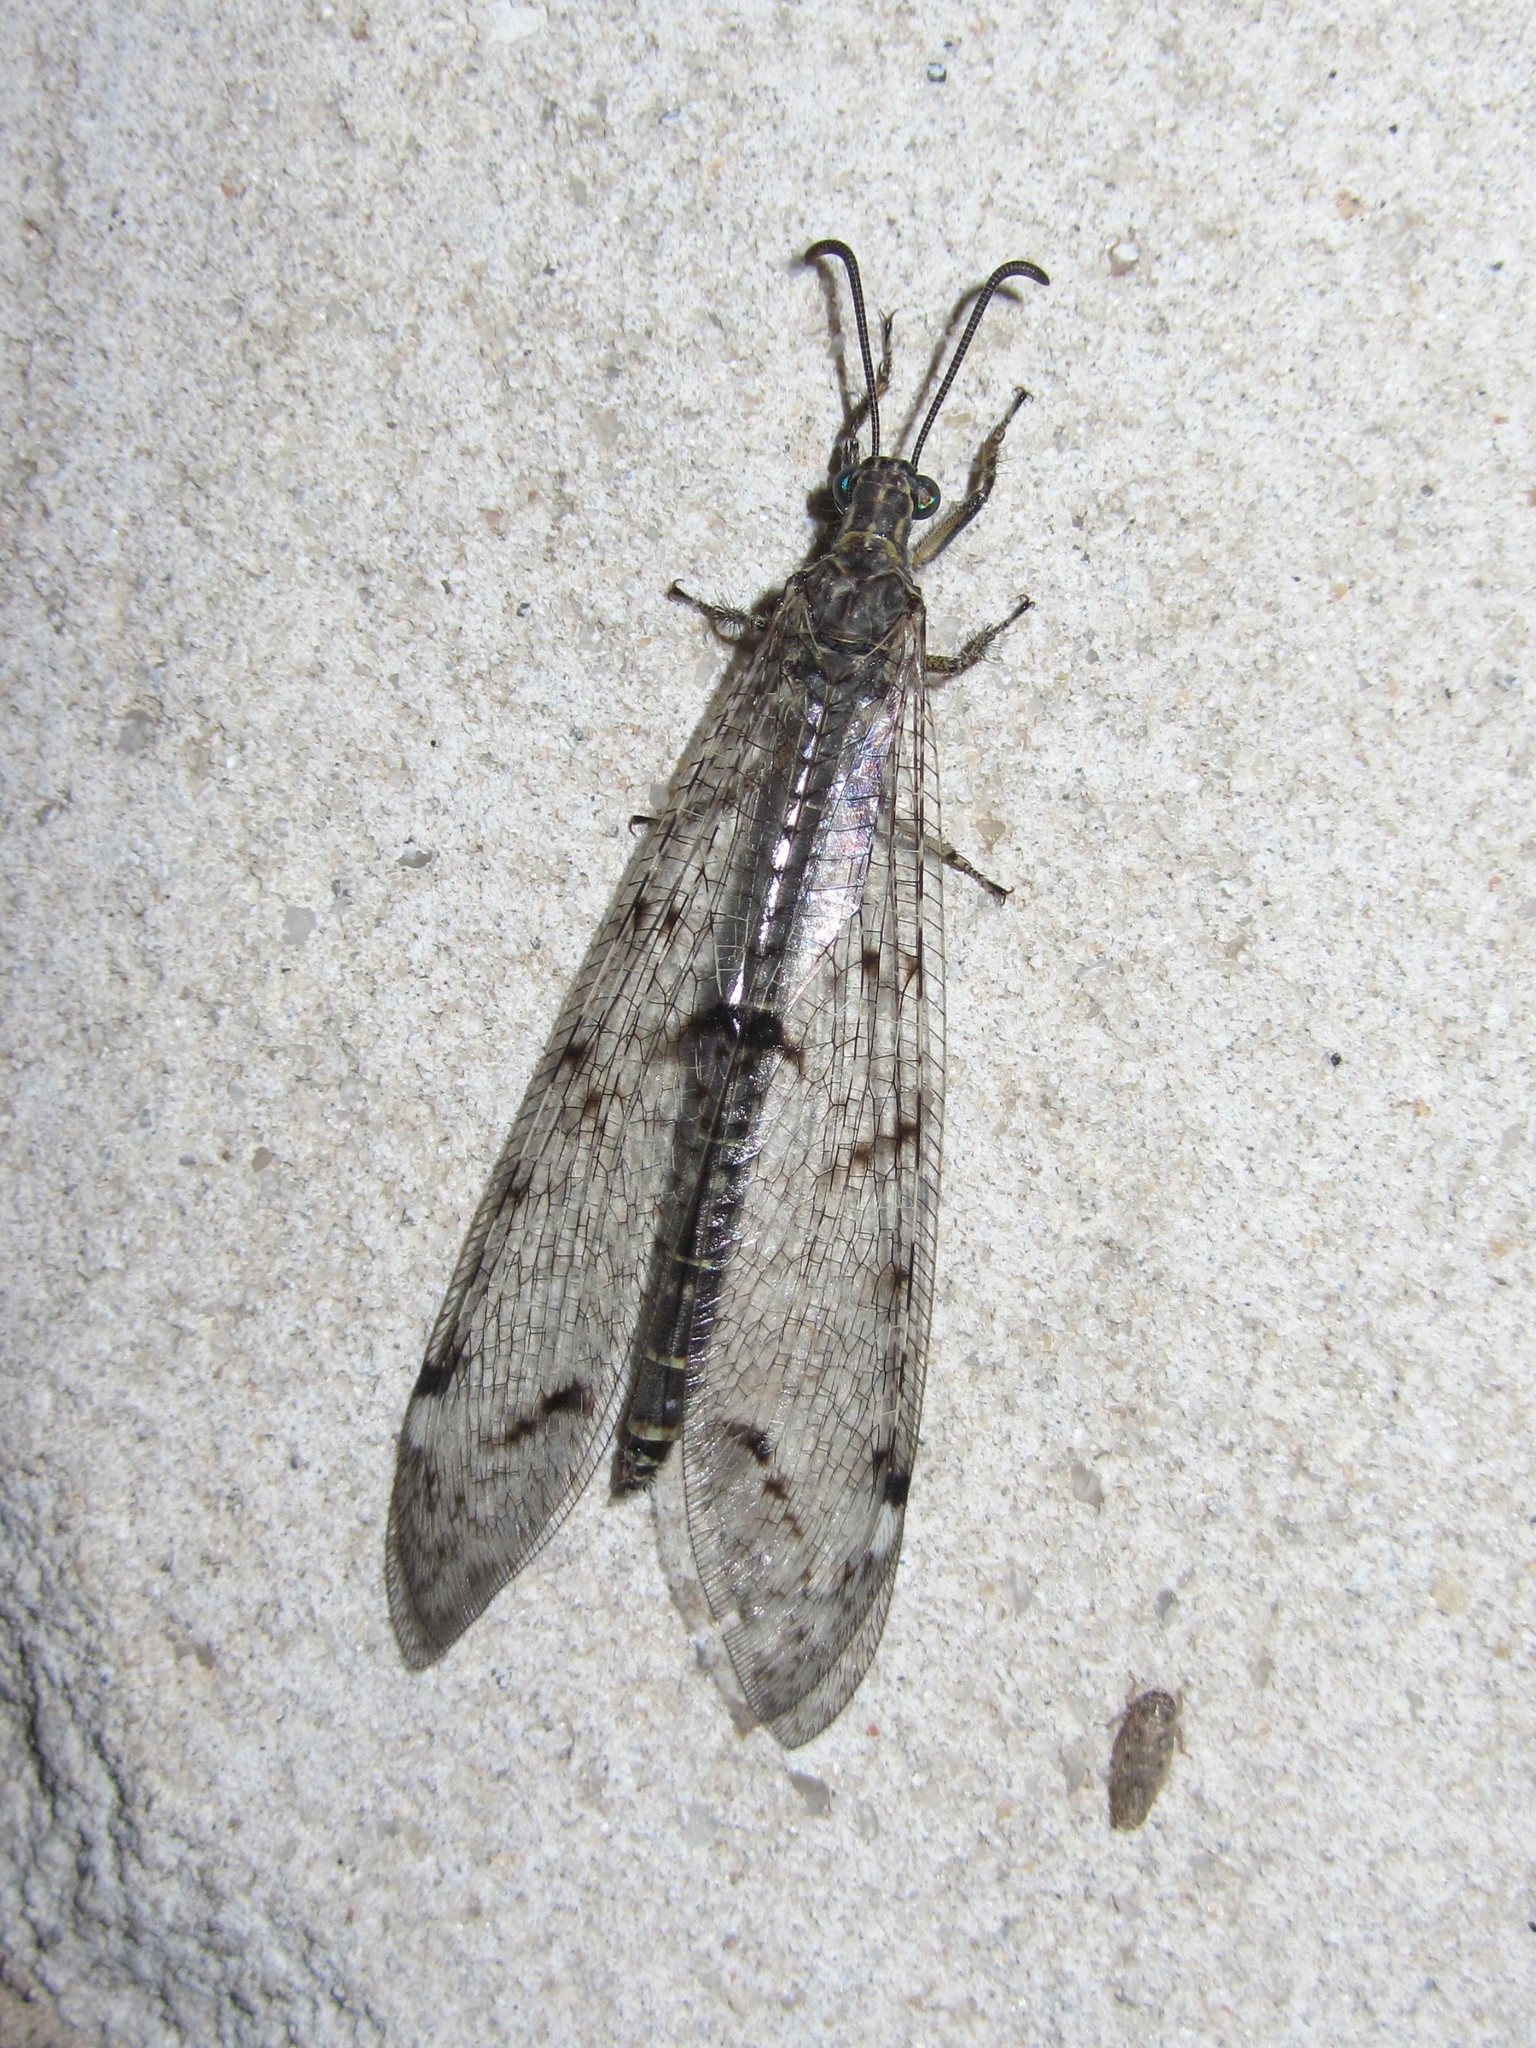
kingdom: Animalia
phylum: Arthropoda
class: Insecta
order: Neuroptera
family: Myrmeleontidae
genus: Distoleon
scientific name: Distoleon tetragrammicus
